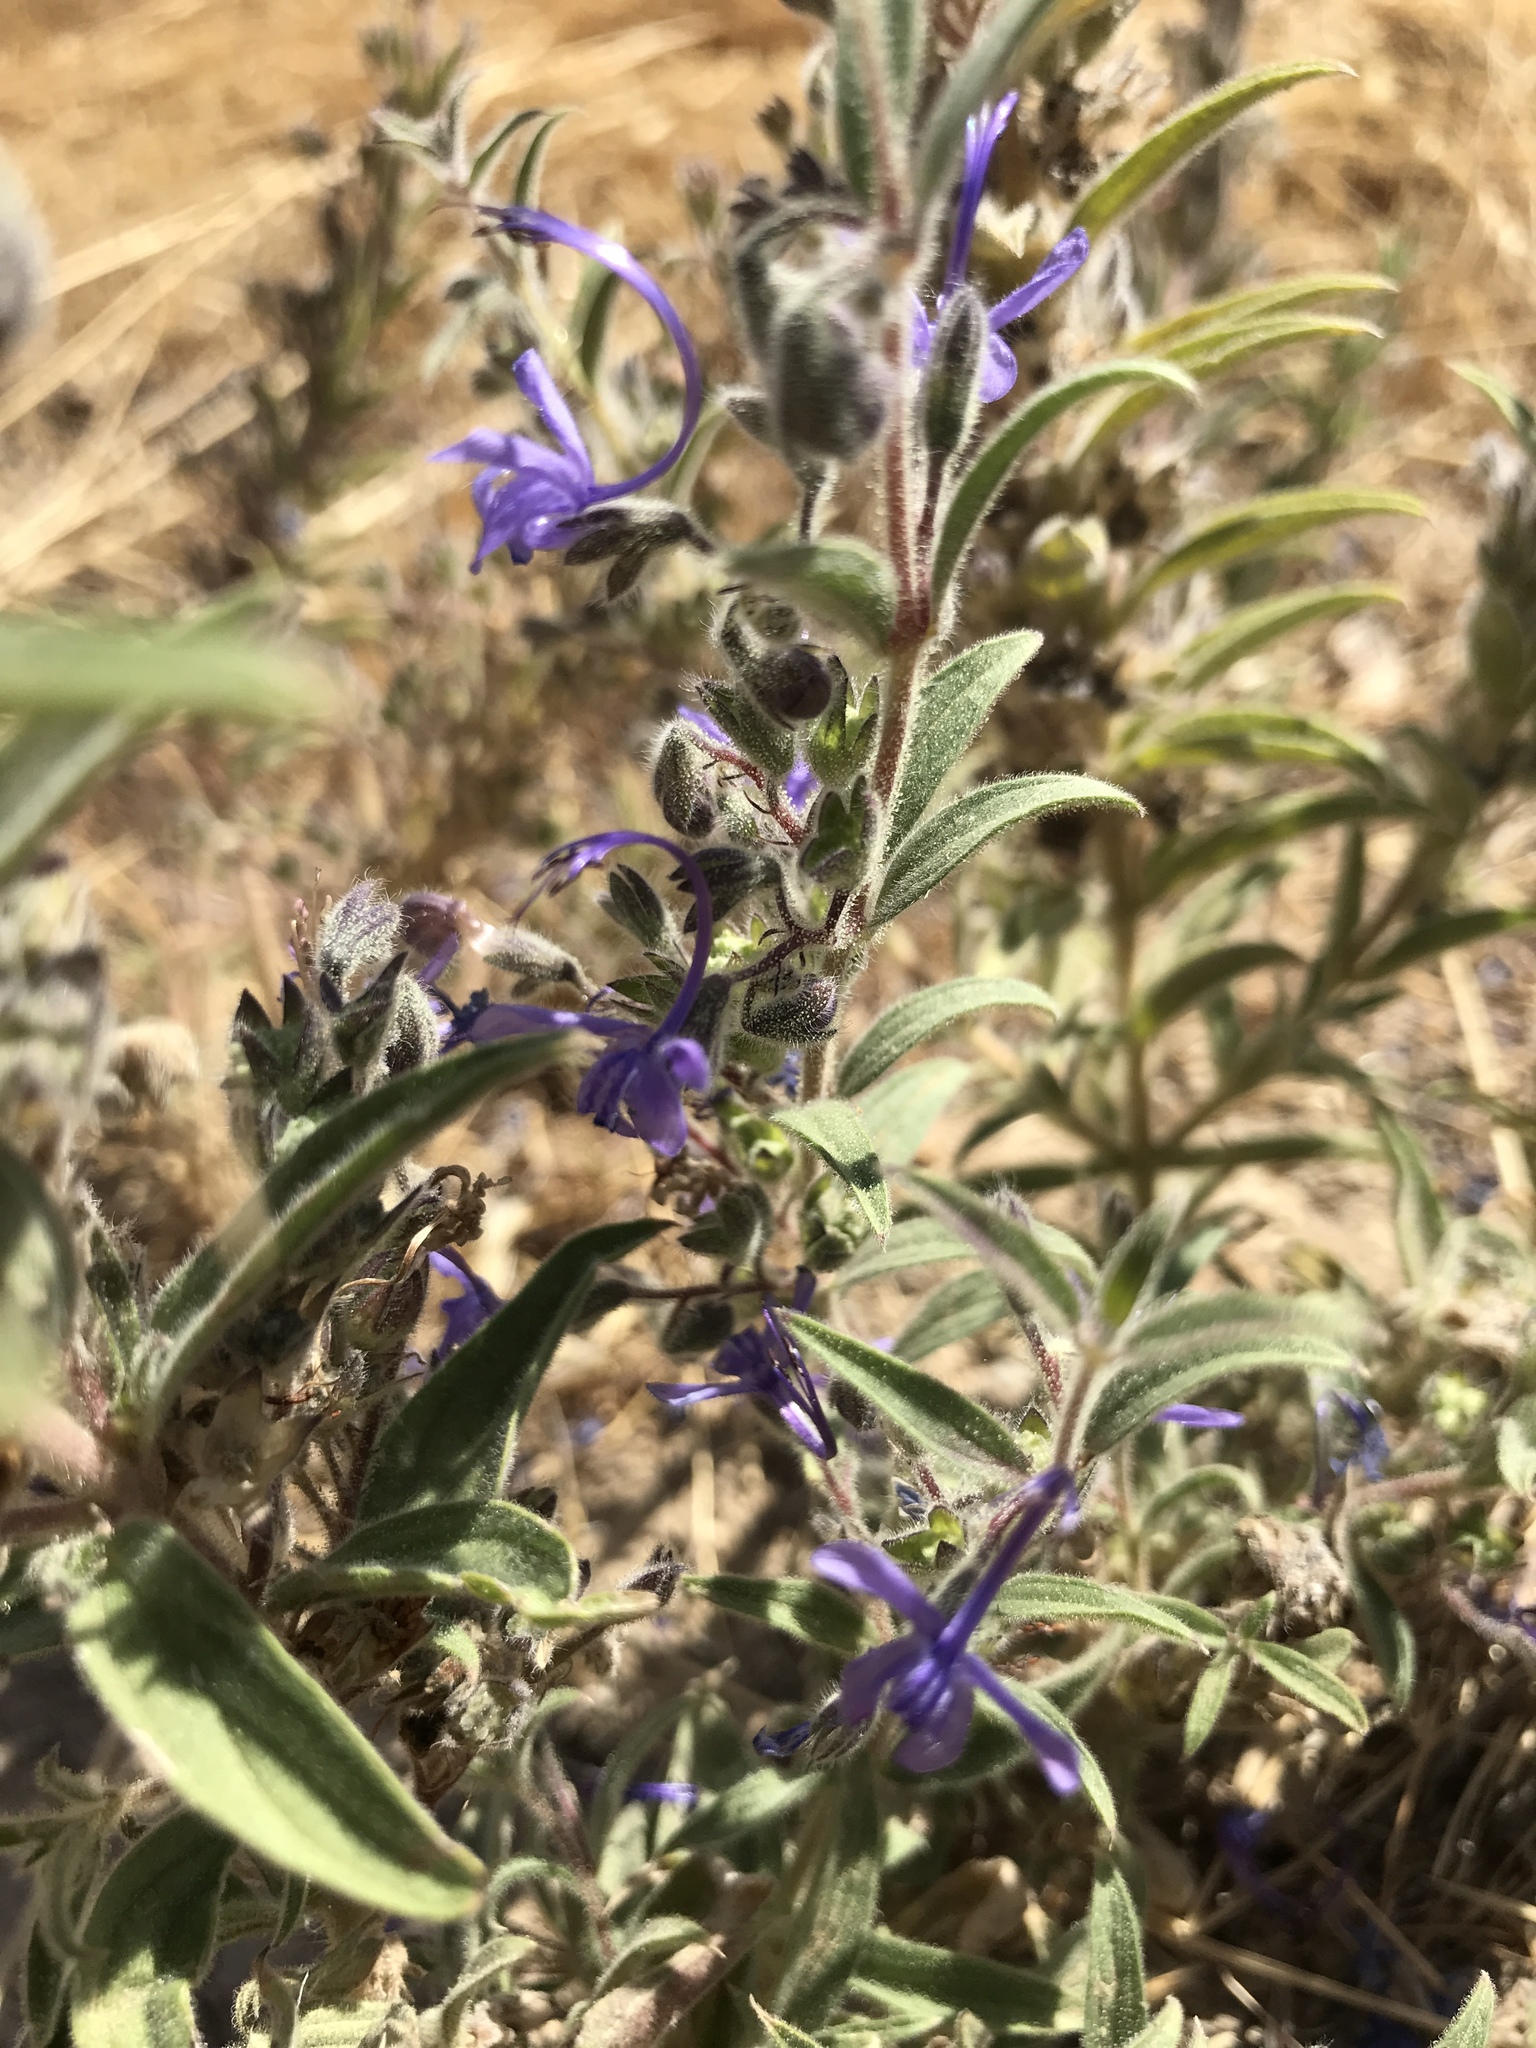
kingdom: Plantae
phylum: Tracheophyta
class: Magnoliopsida
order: Lamiales
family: Lamiaceae
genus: Trichostema
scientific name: Trichostema lanceolatum
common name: Vinegar-weed
